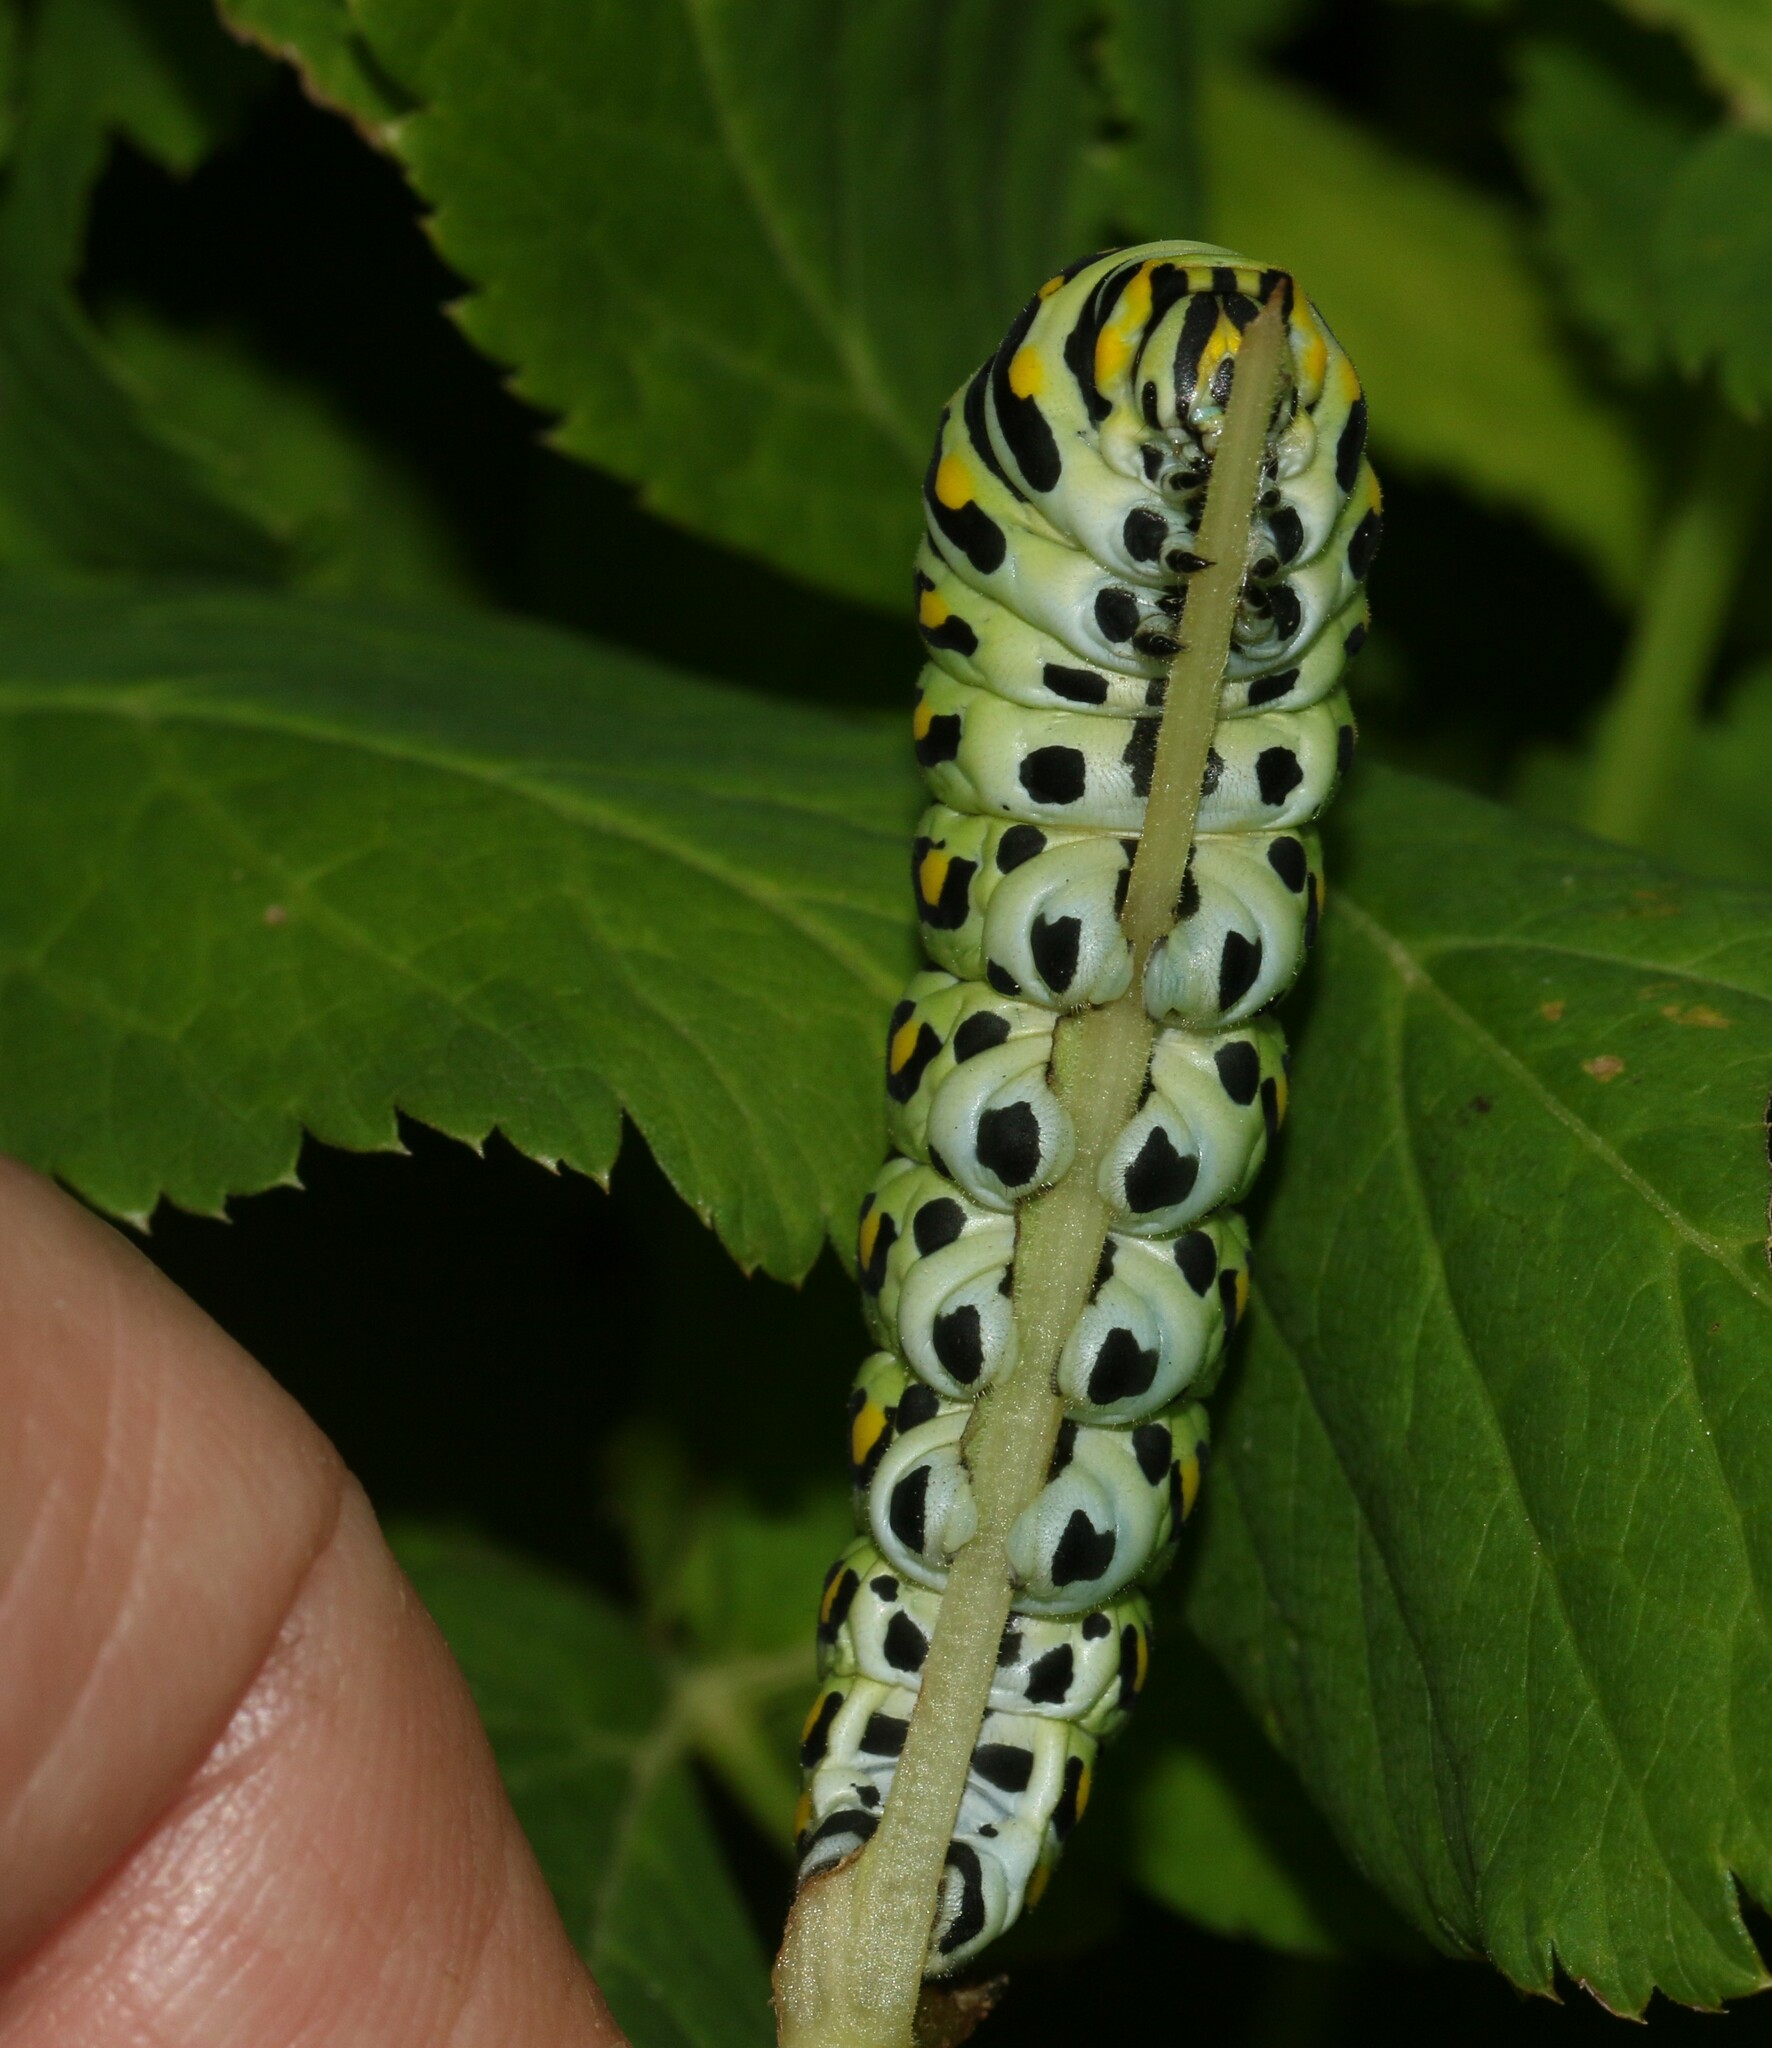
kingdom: Animalia
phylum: Arthropoda
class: Insecta
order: Lepidoptera
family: Papilionidae
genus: Papilio
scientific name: Papilio polyxenes
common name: Black swallowtail
